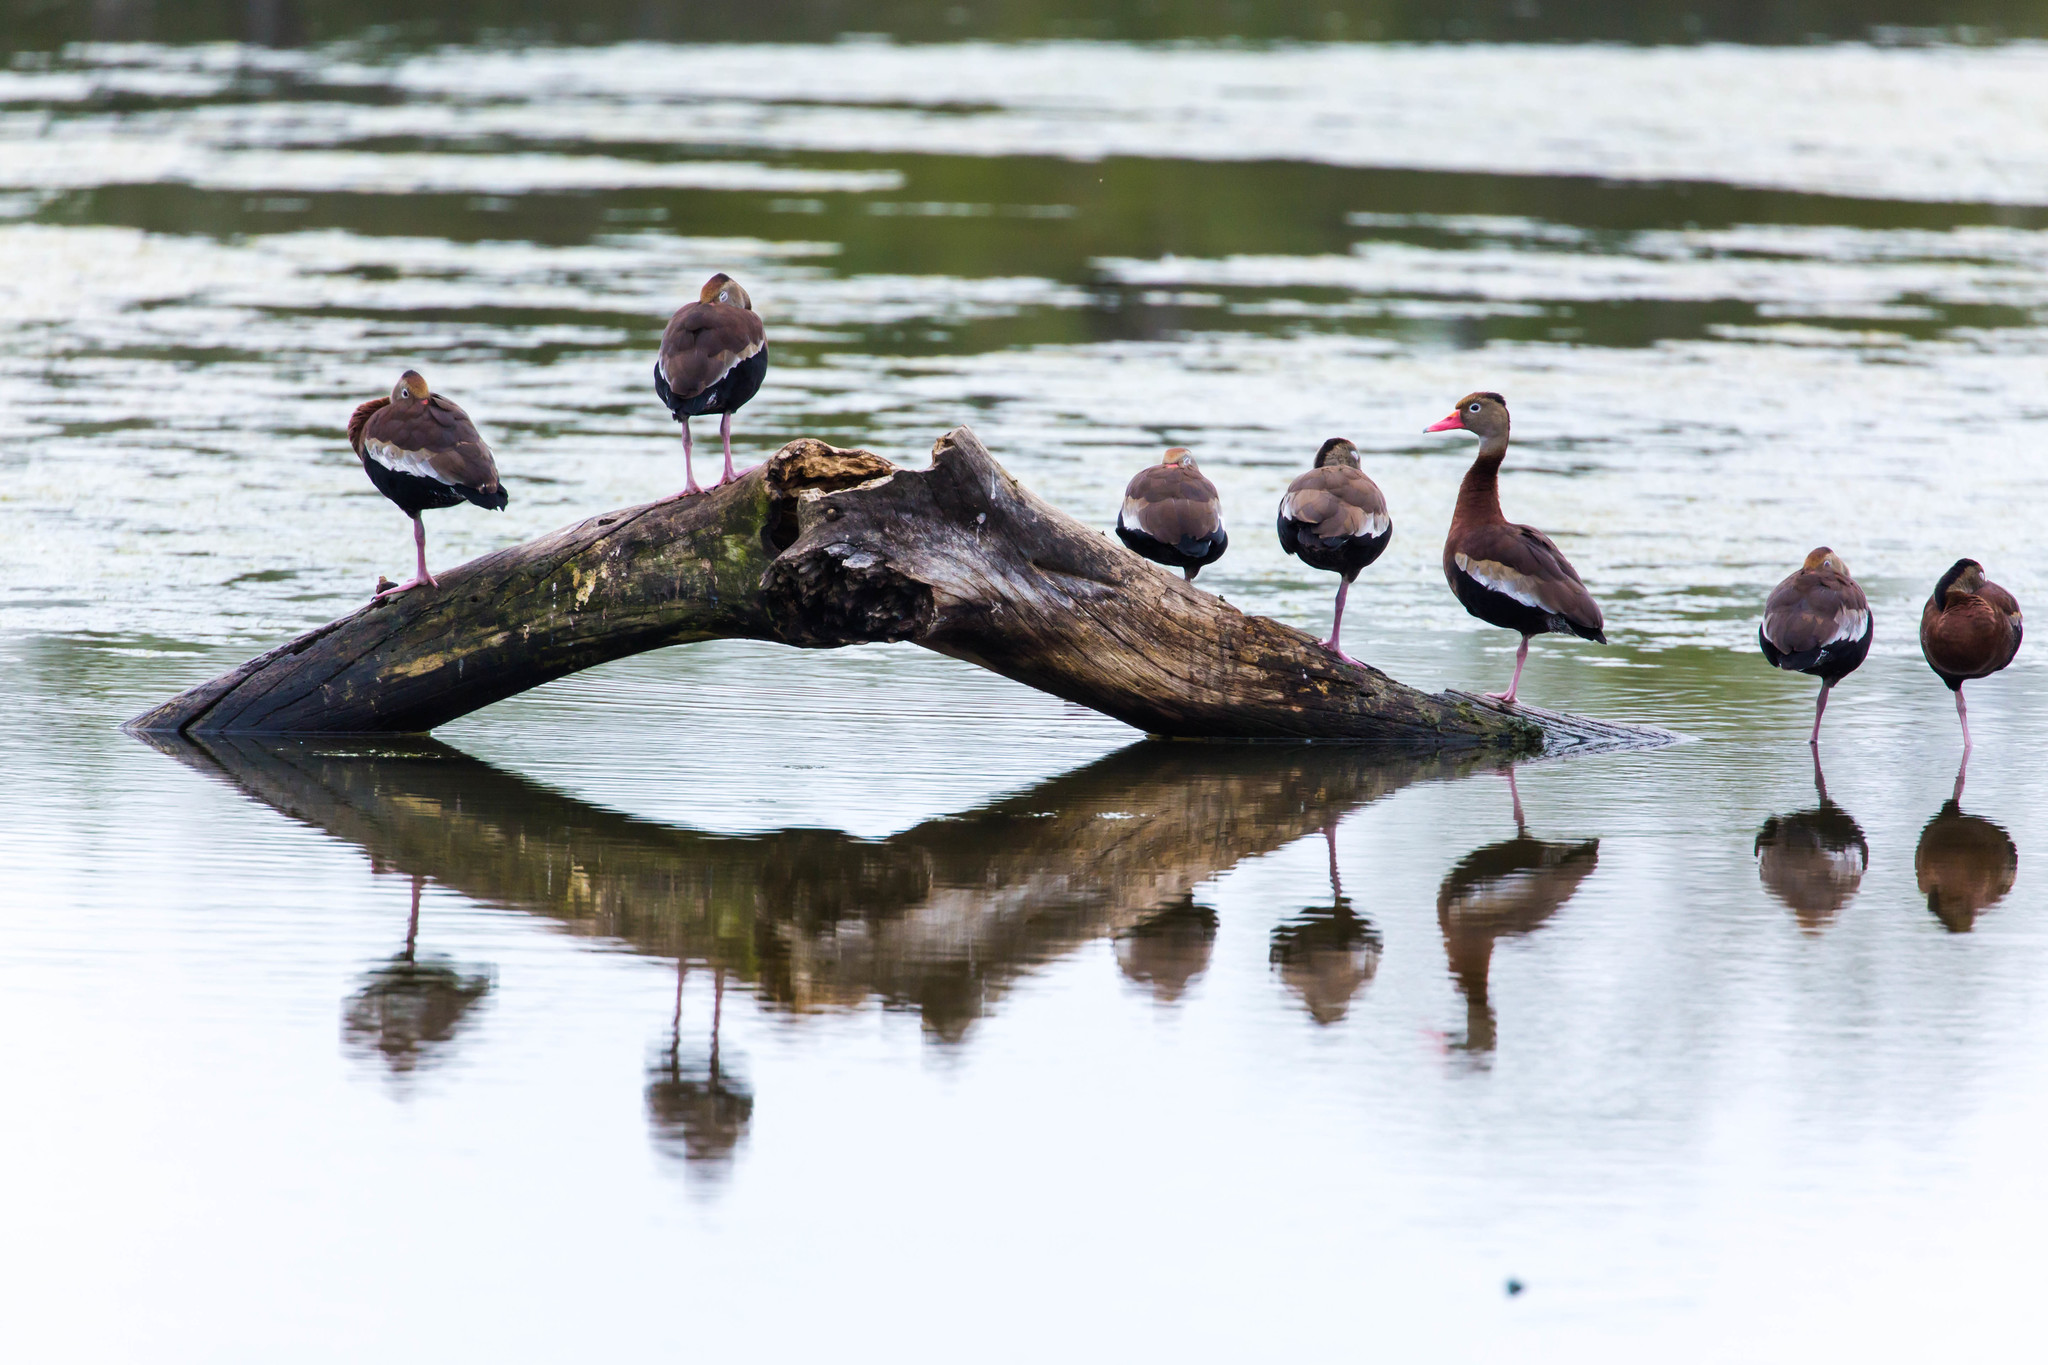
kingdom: Animalia
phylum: Chordata
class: Aves
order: Anseriformes
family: Anatidae
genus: Dendrocygna
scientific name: Dendrocygna autumnalis
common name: Black-bellied whistling duck
